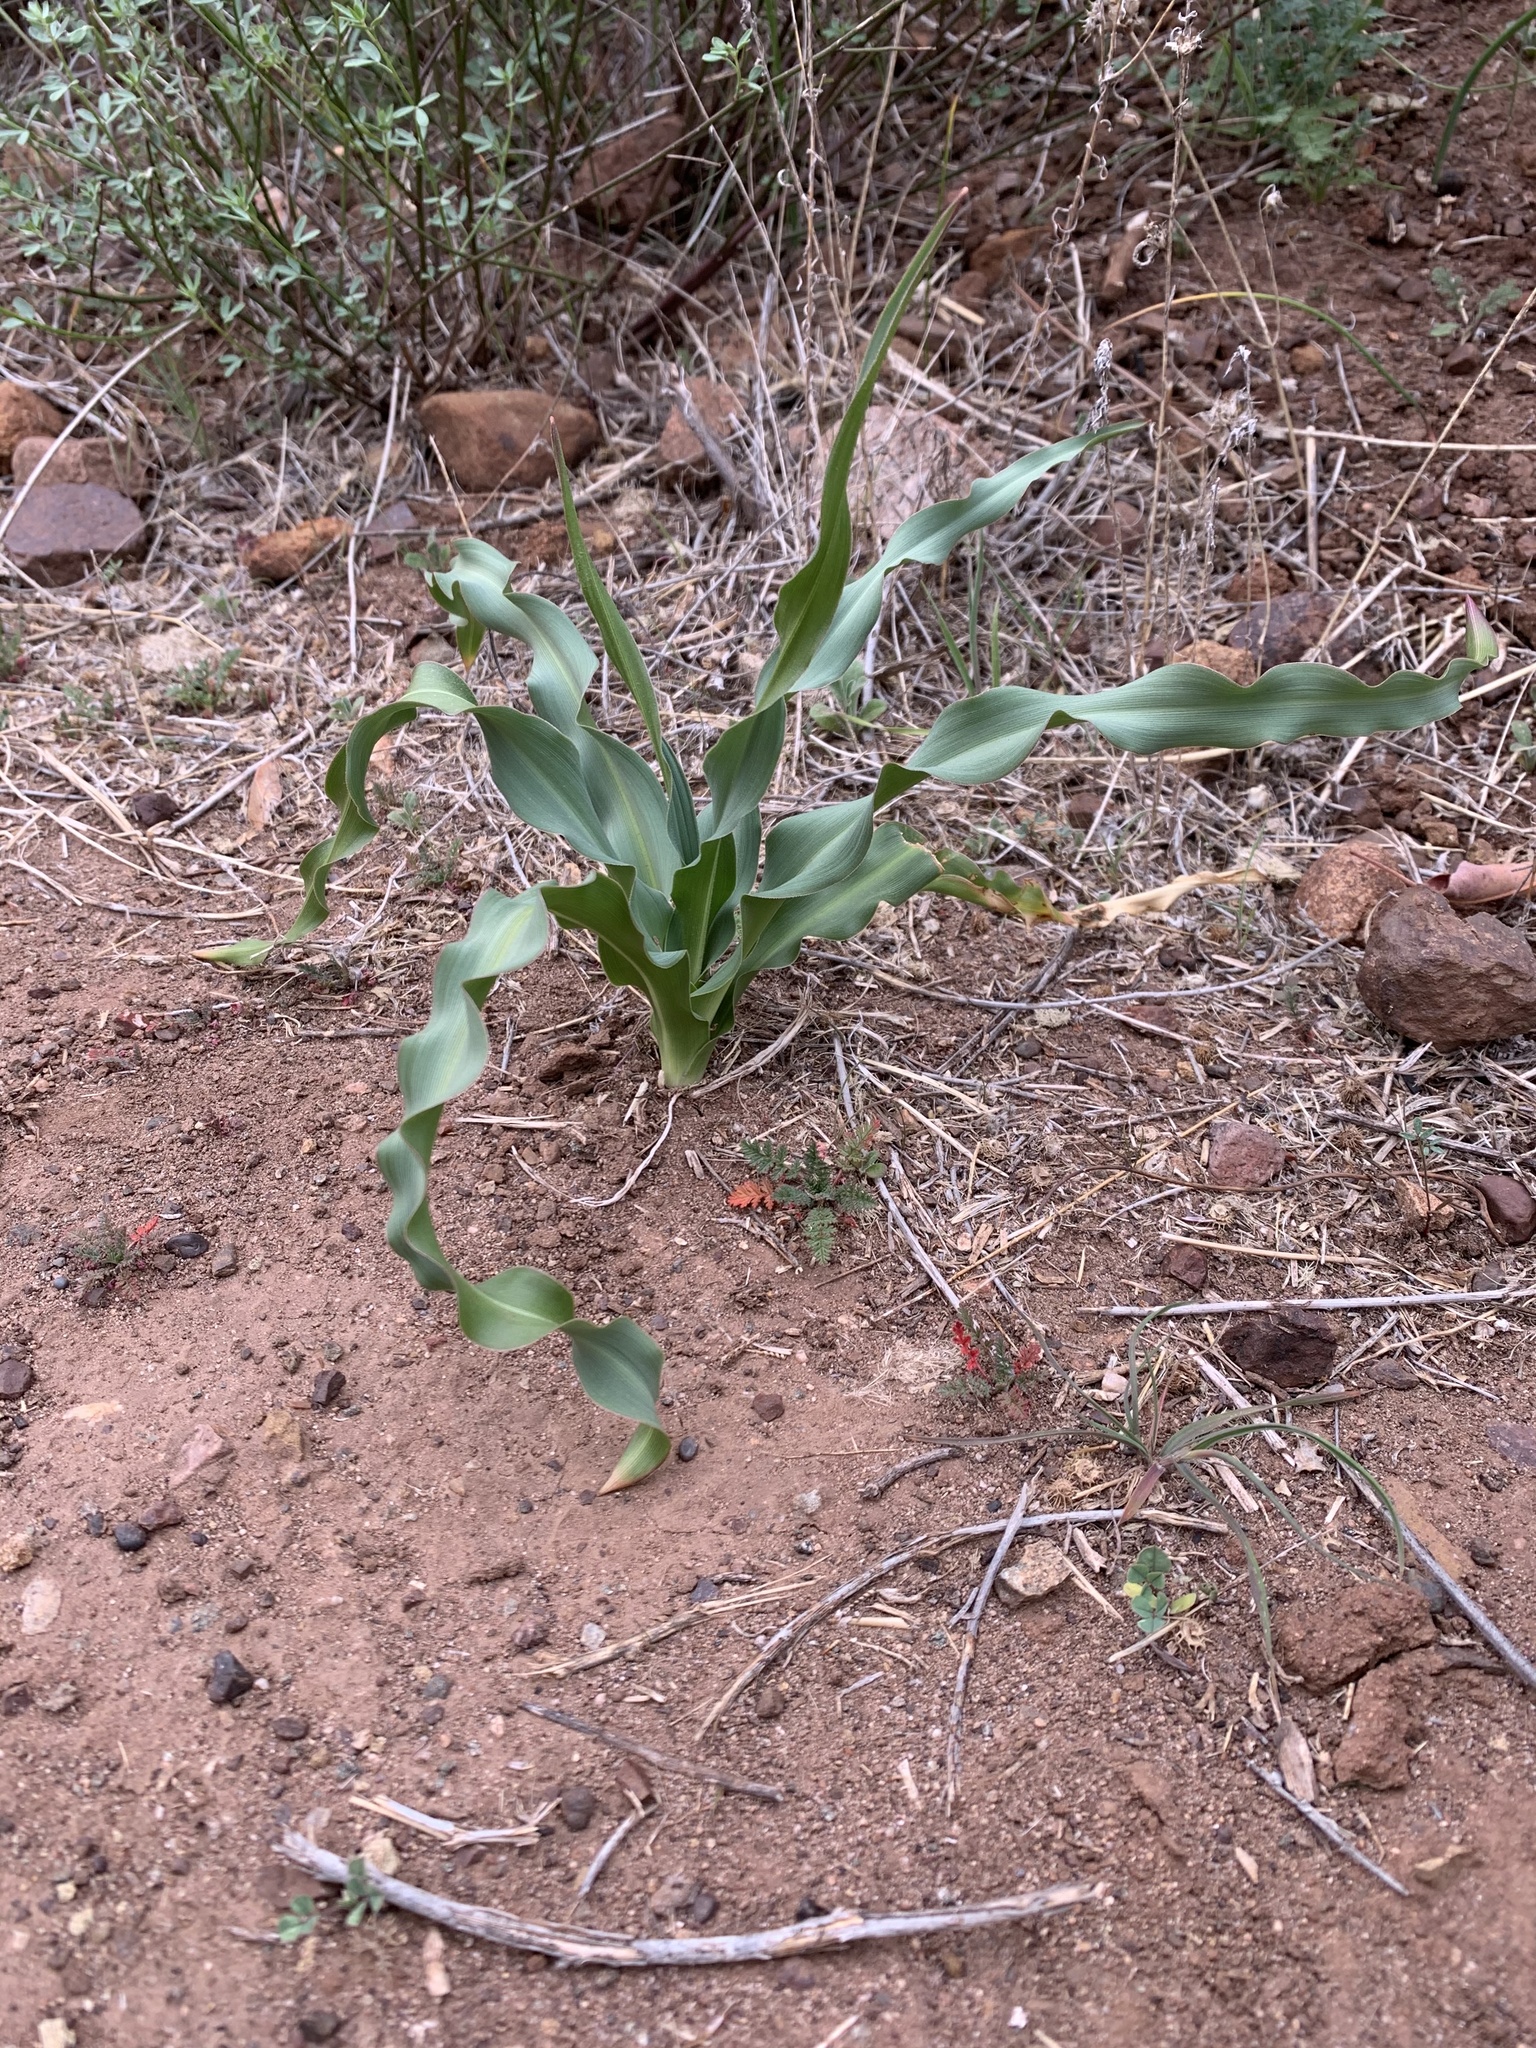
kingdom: Plantae
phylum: Tracheophyta
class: Liliopsida
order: Asparagales
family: Asparagaceae
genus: Chlorogalum
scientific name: Chlorogalum pomeridianum
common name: Amole
